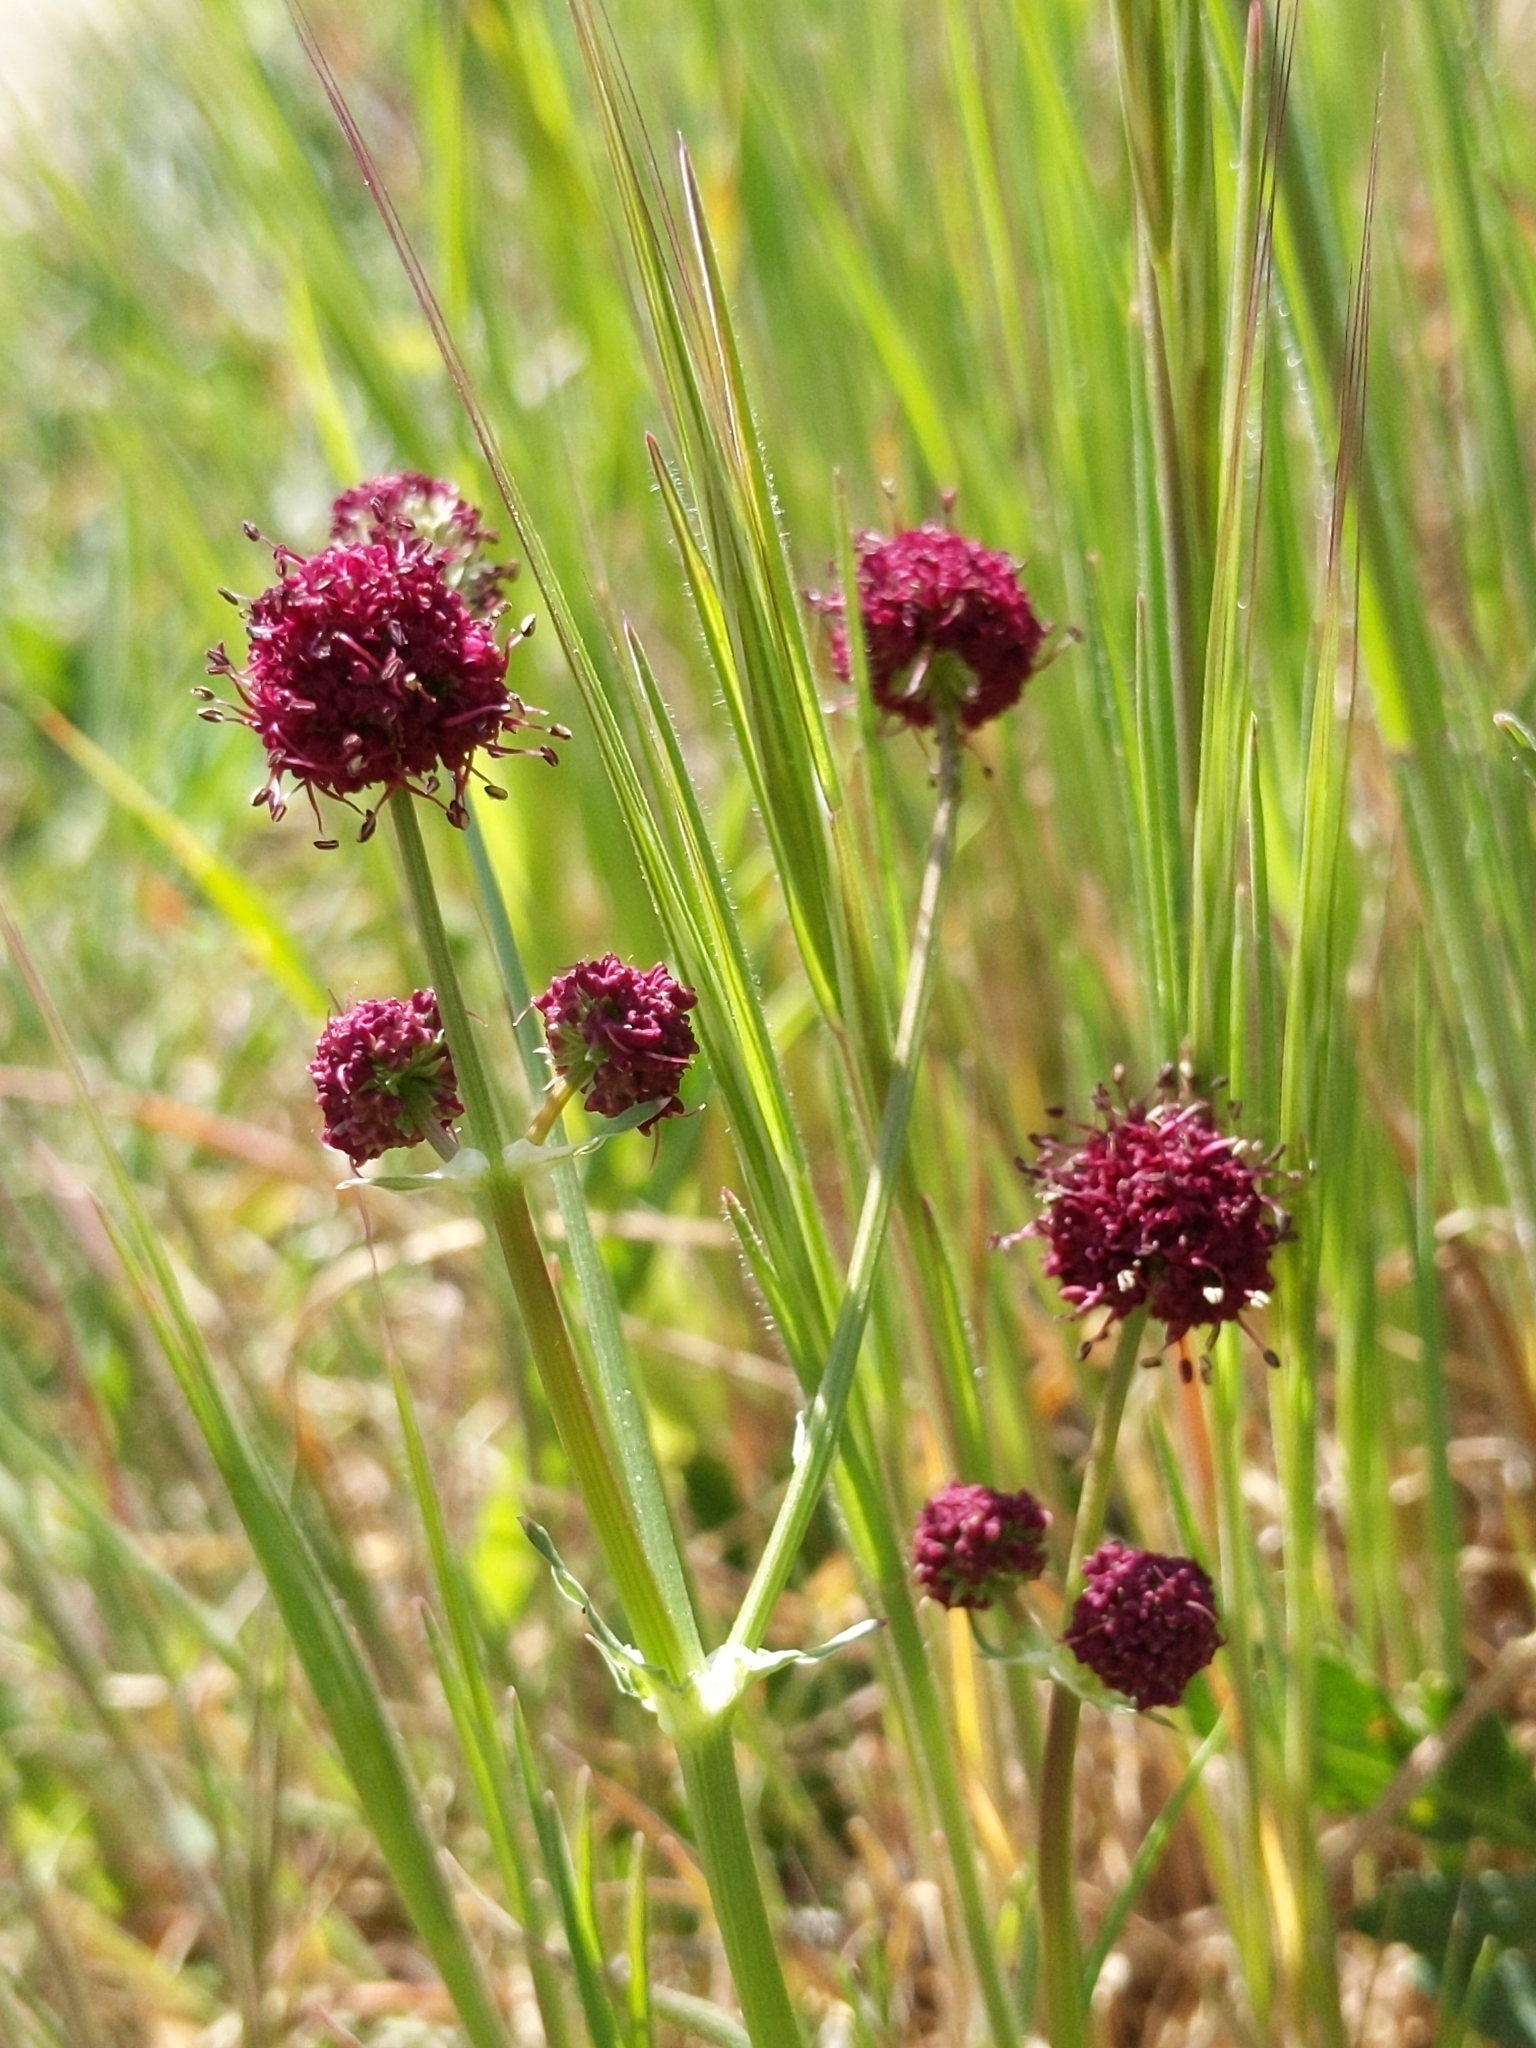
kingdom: Plantae
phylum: Tracheophyta
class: Magnoliopsida
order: Apiales
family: Apiaceae
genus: Sanicula
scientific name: Sanicula bipinnatifida
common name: Shoe-buttons
